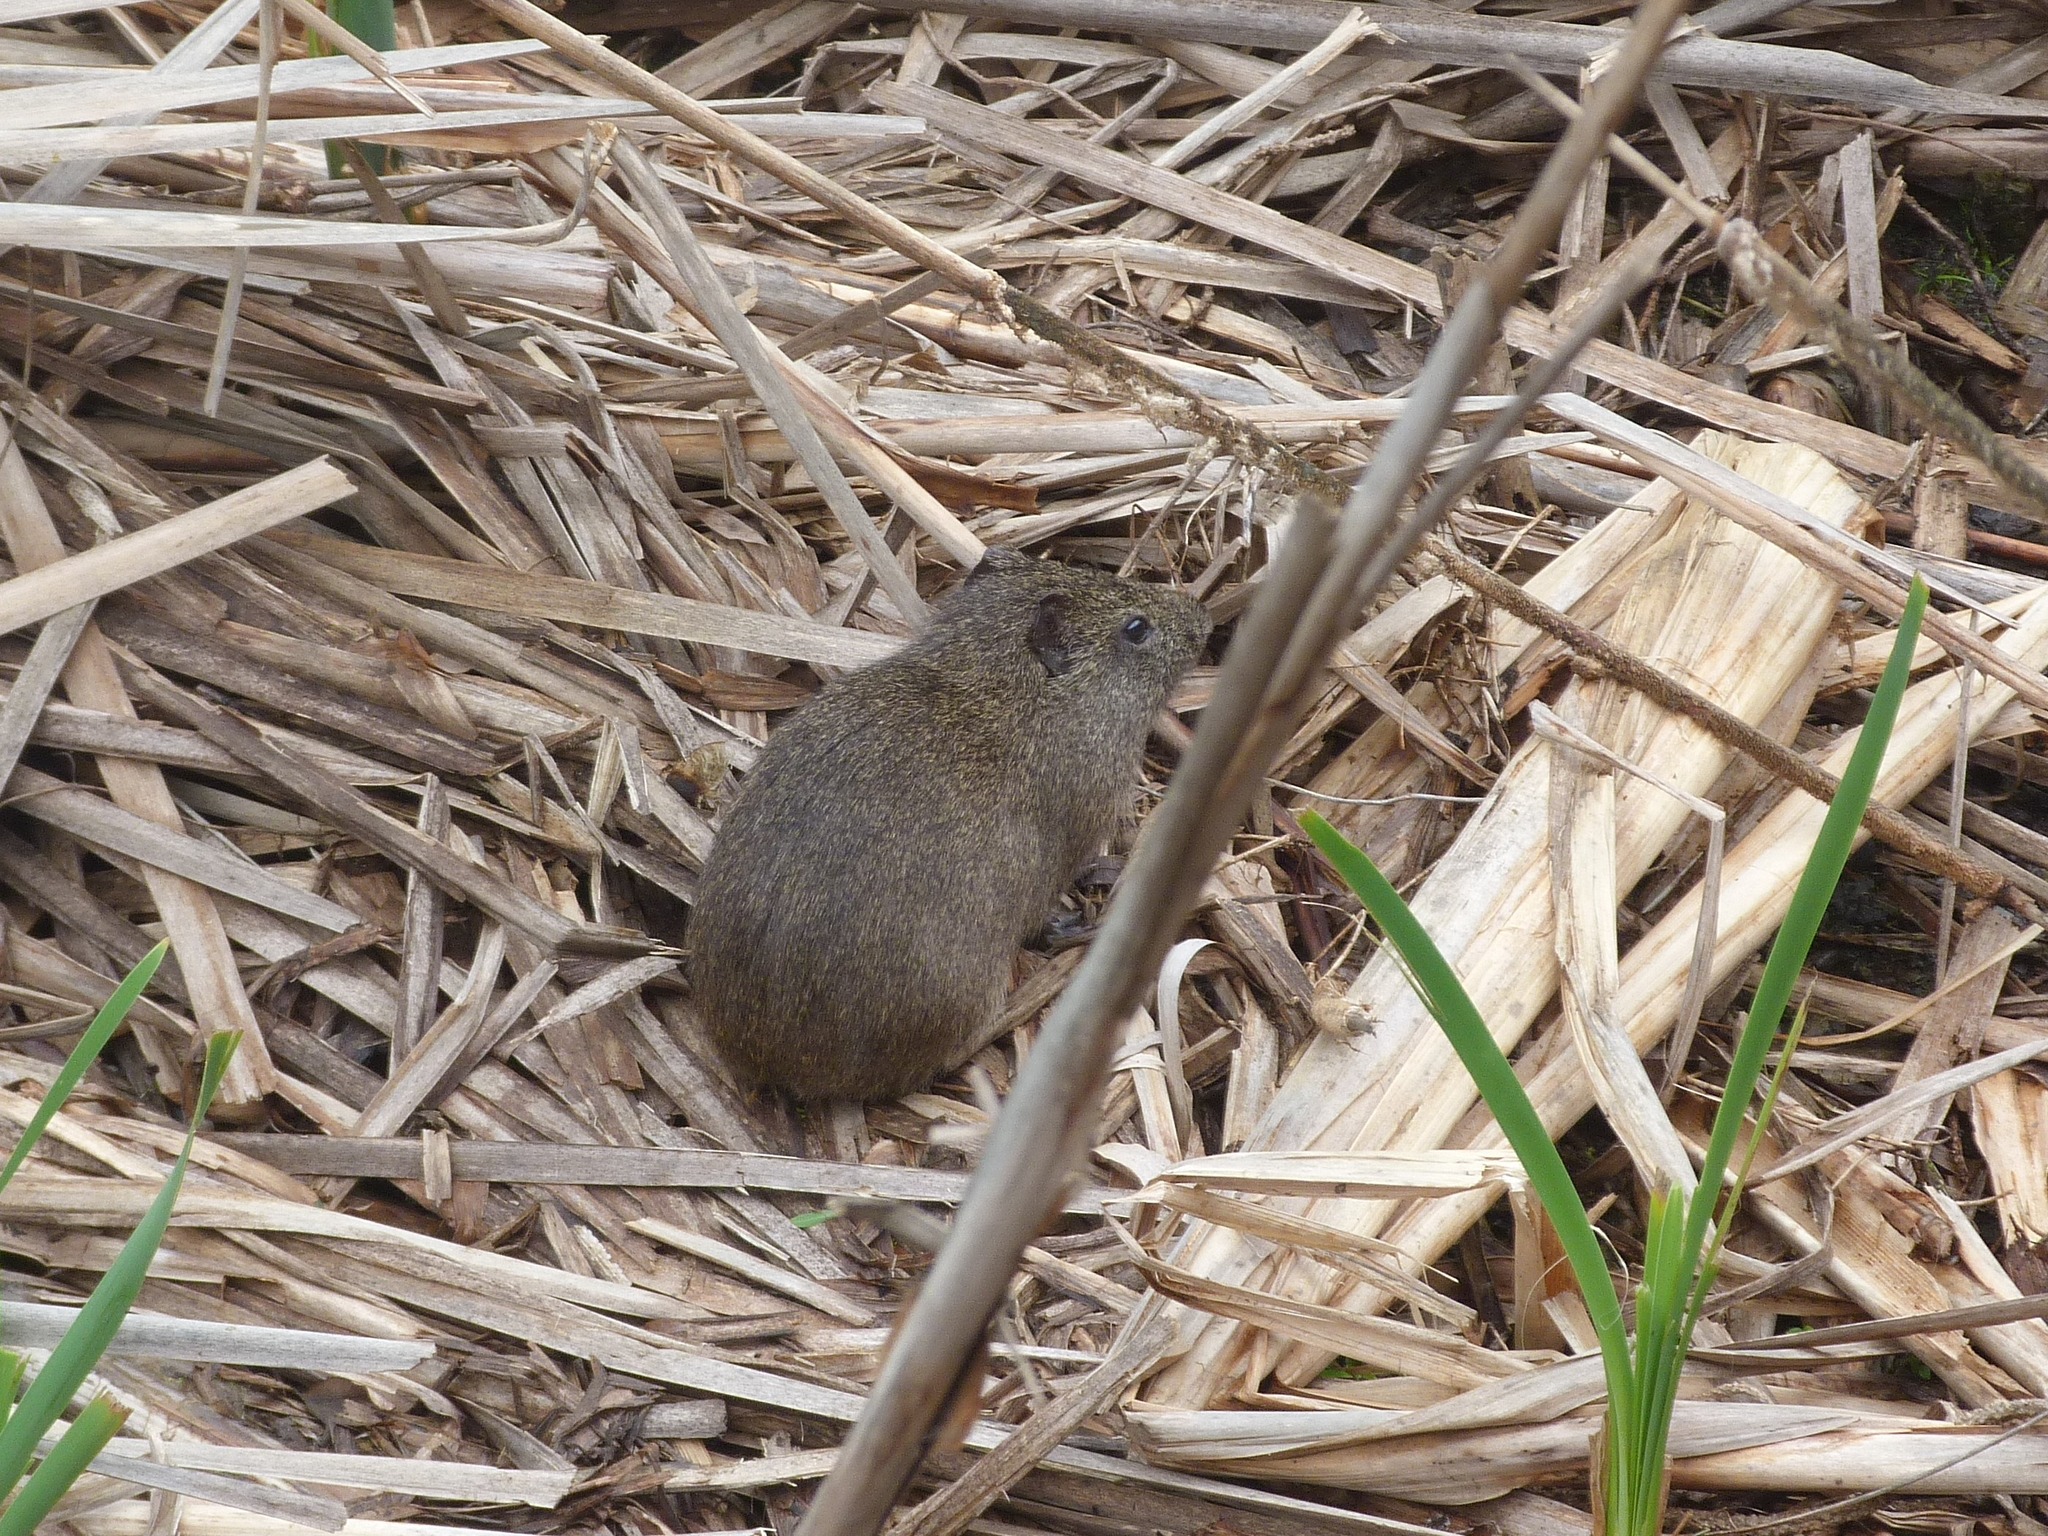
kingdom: Animalia
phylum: Chordata
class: Mammalia
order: Rodentia
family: Caviidae
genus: Cavia
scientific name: Cavia aperea
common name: Brazilian guinea pig
